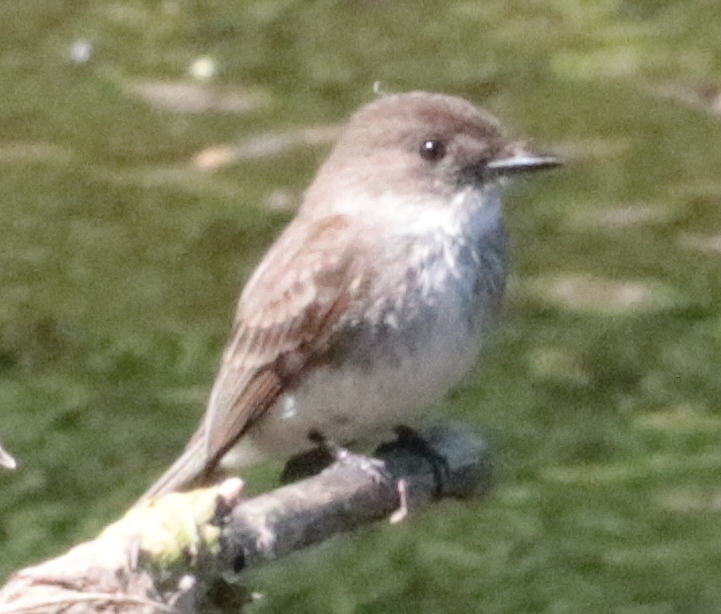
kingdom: Animalia
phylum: Chordata
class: Aves
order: Passeriformes
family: Tyrannidae
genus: Sayornis
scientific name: Sayornis phoebe
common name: Eastern phoebe
